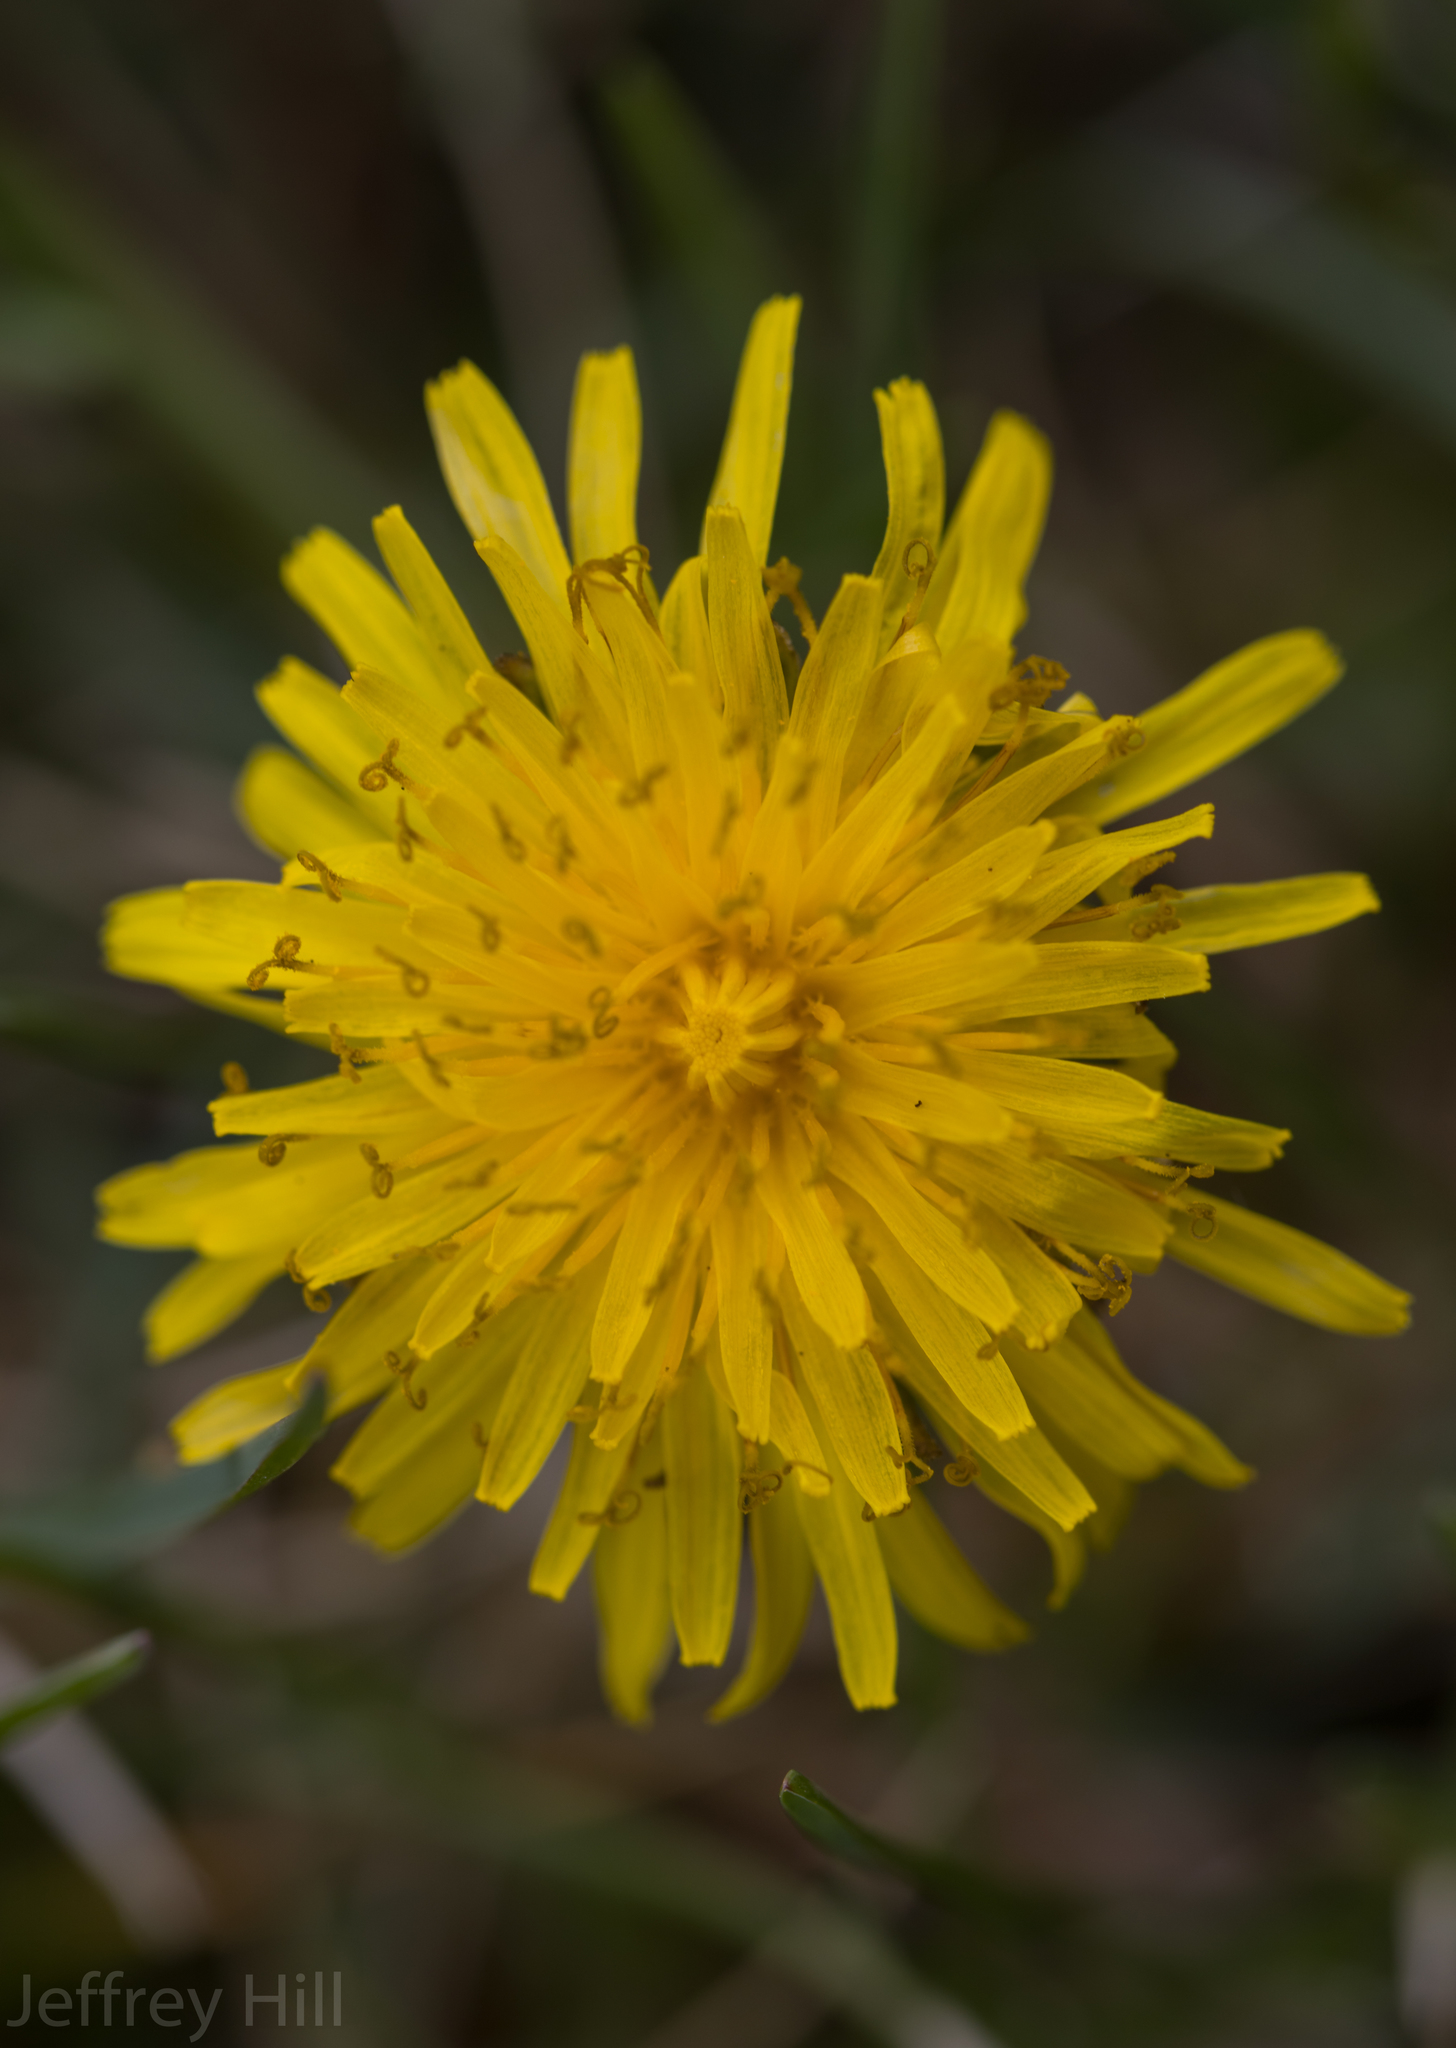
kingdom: Plantae
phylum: Tracheophyta
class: Magnoliopsida
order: Asterales
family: Asteraceae
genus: Taraxacum
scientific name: Taraxacum
